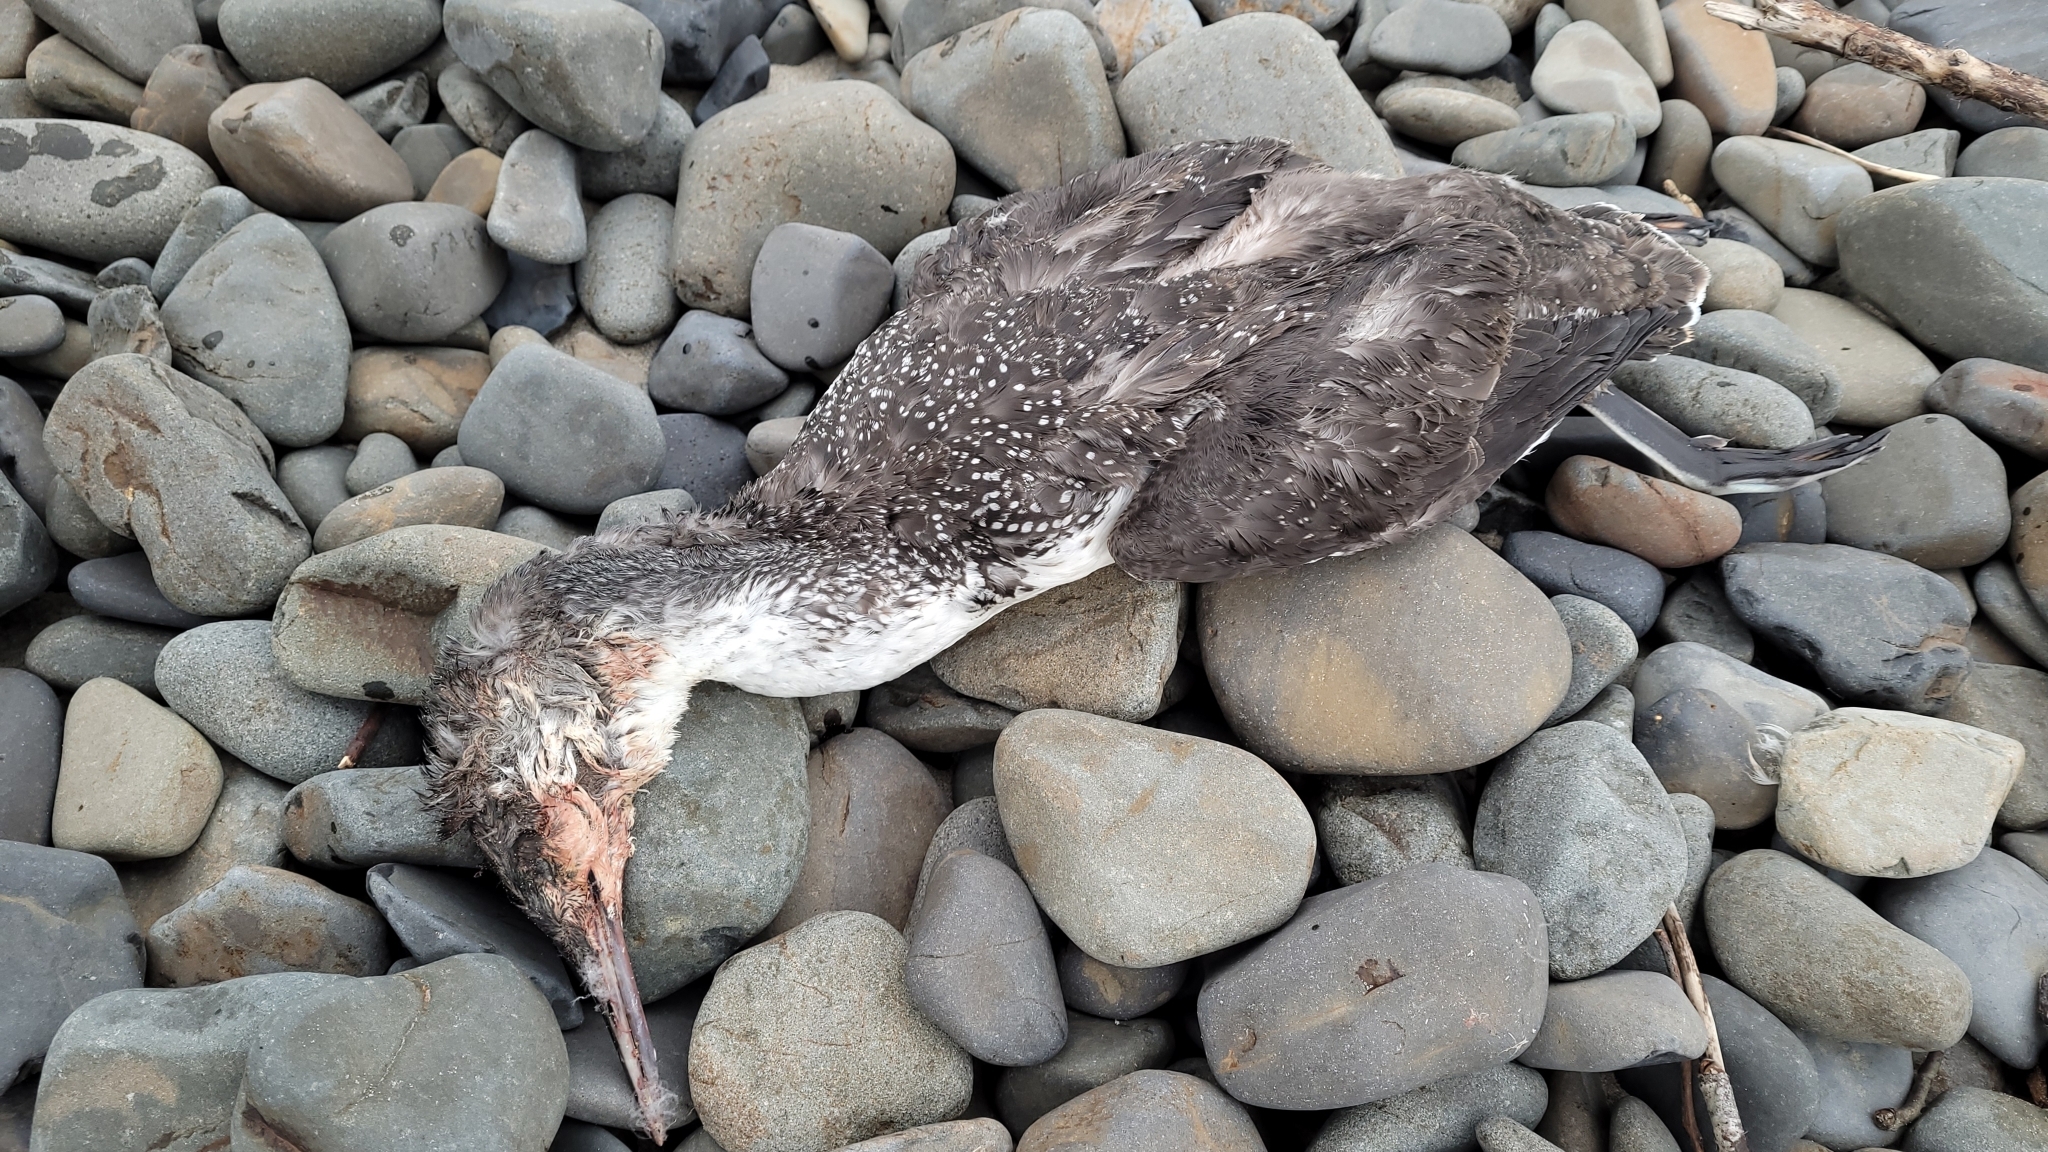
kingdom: Animalia
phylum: Chordata
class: Aves
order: Gaviiformes
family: Gaviidae
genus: Gavia
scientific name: Gavia stellata
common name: Red-throated loon
